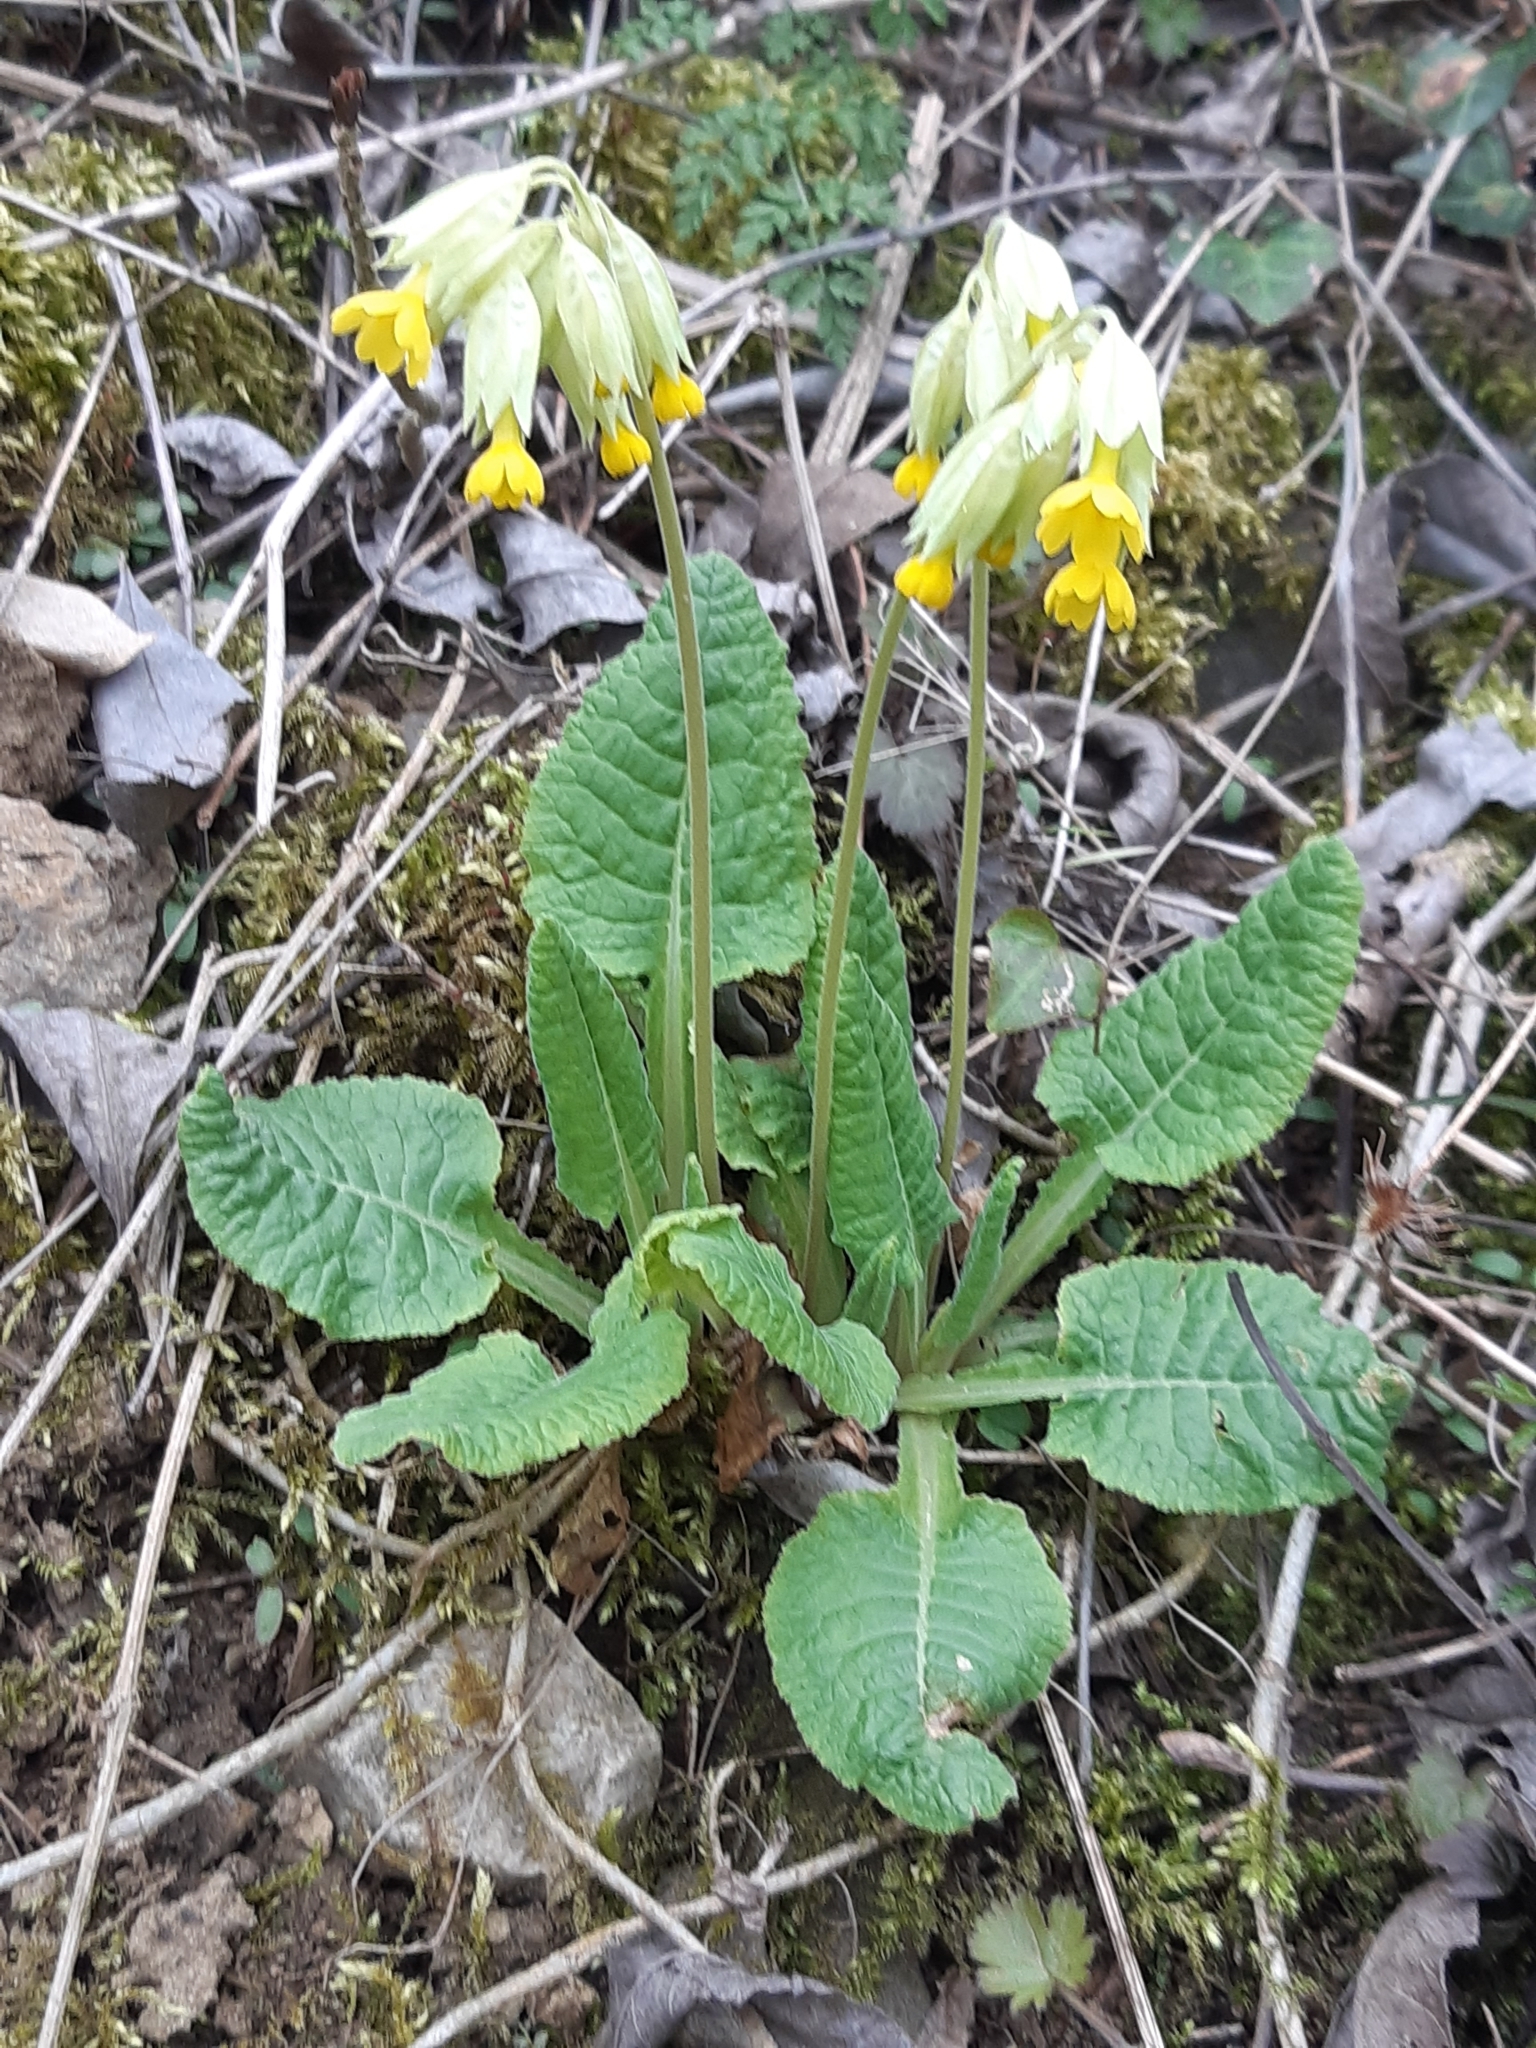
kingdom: Plantae
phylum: Tracheophyta
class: Magnoliopsida
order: Ericales
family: Primulaceae
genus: Primula
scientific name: Primula veris
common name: Cowslip
